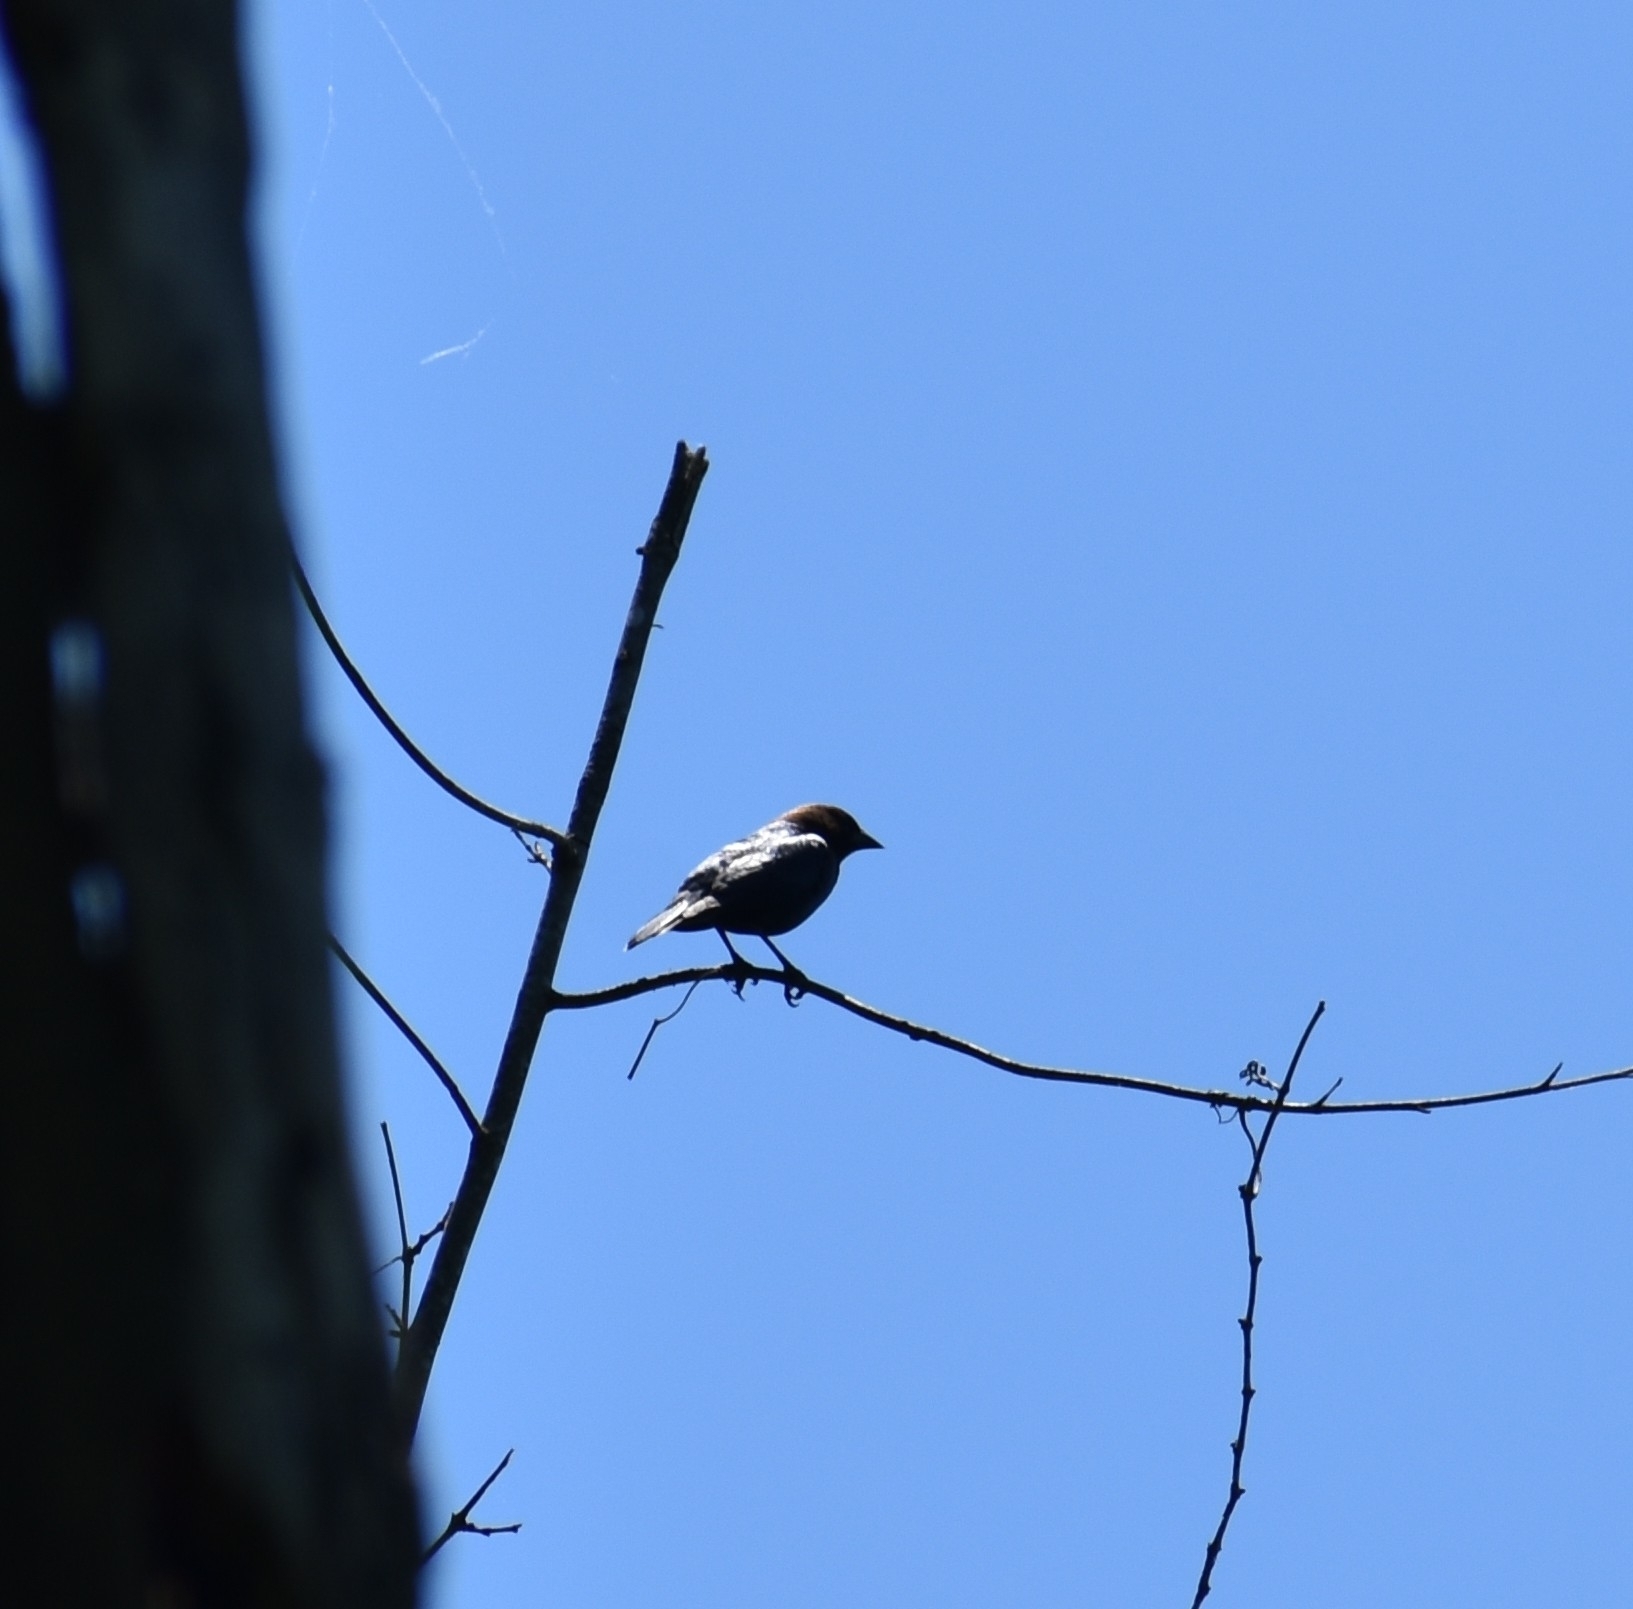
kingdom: Animalia
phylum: Chordata
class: Aves
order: Passeriformes
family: Icteridae
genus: Molothrus
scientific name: Molothrus ater
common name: Brown-headed cowbird
